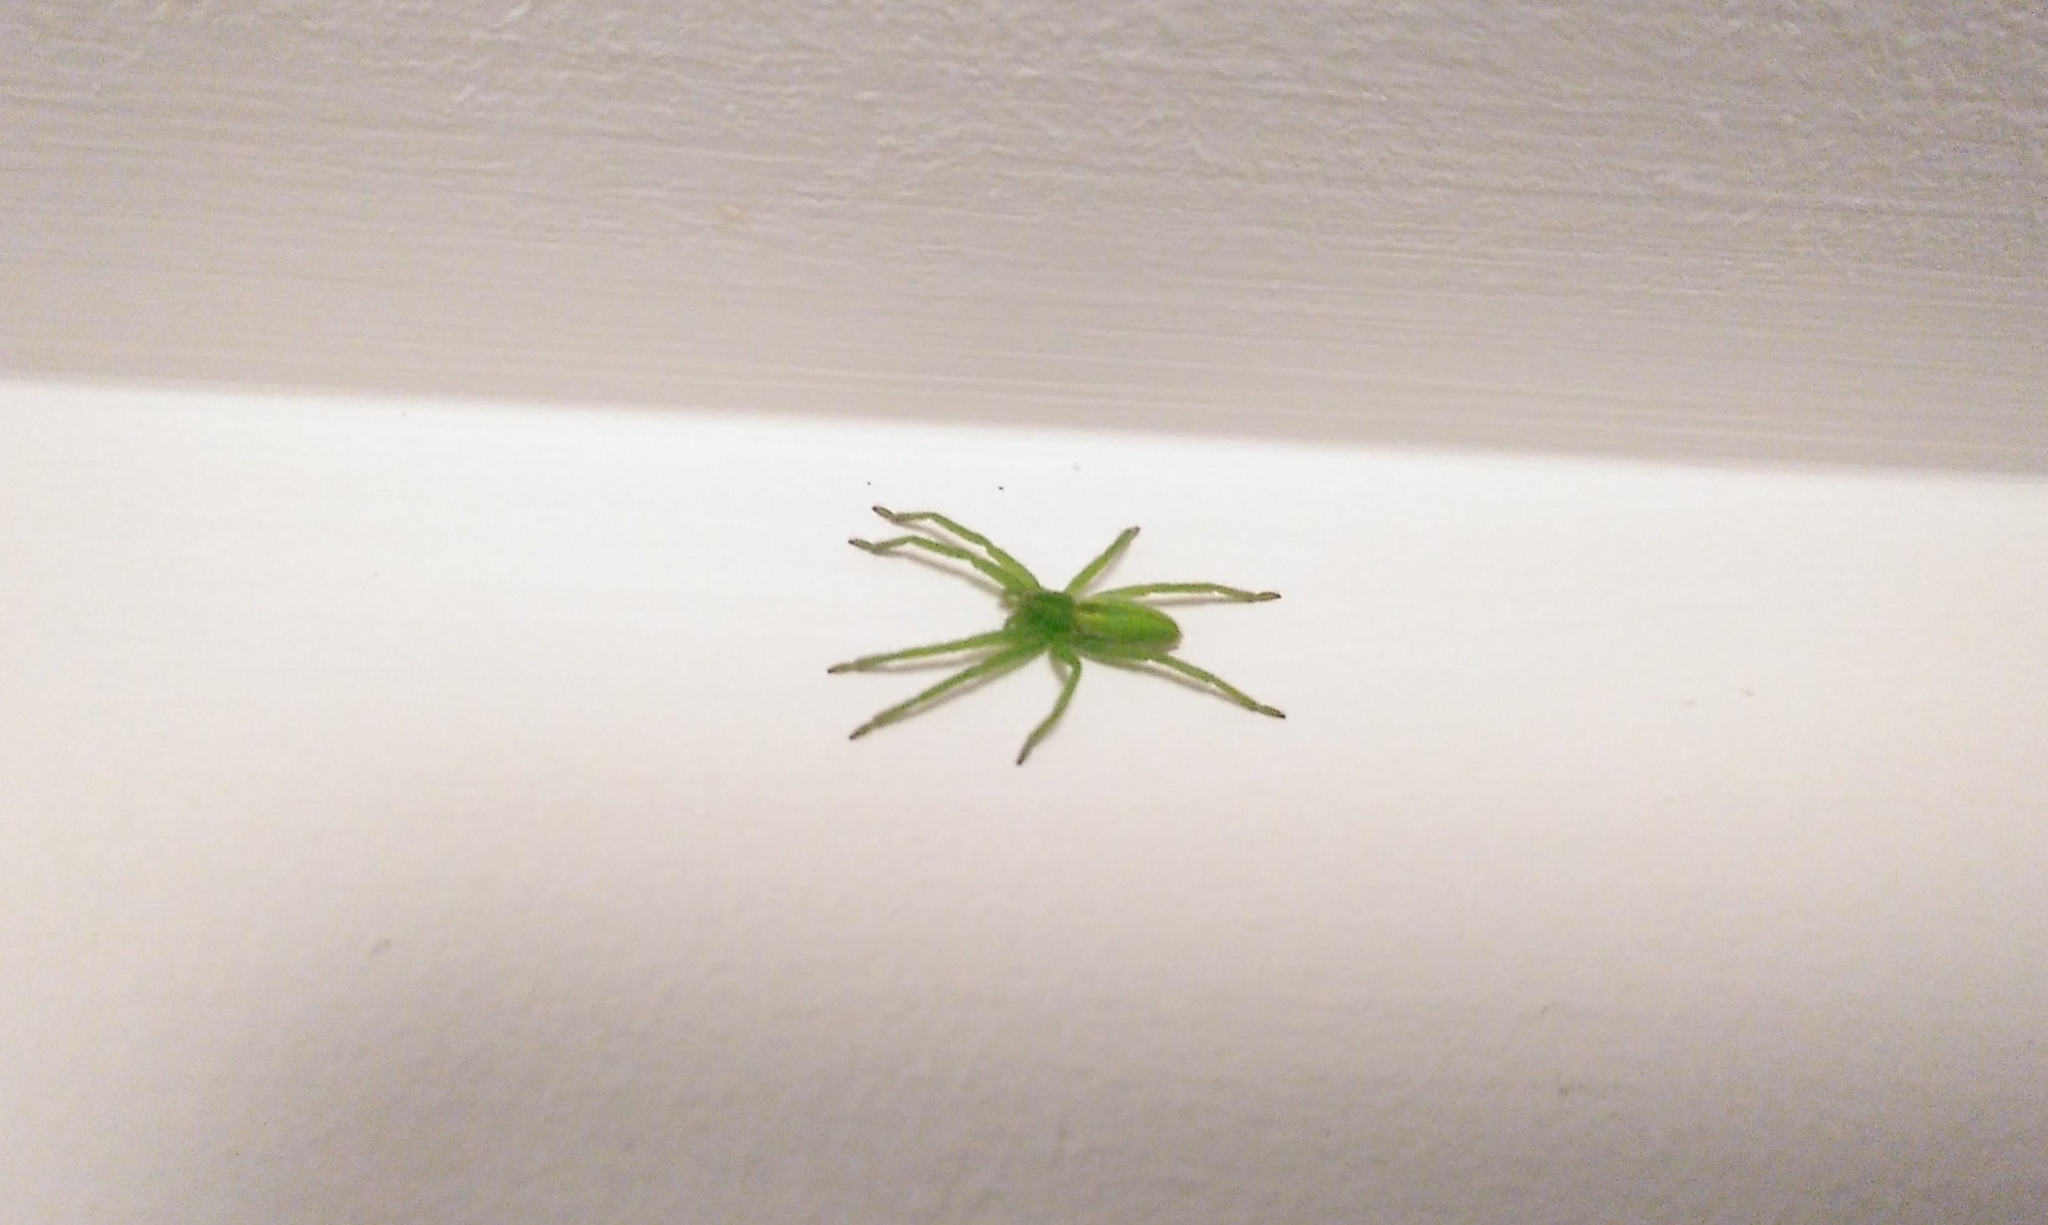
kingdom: Animalia
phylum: Arthropoda
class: Arachnida
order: Araneae
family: Sparassidae
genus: Micrommata
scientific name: Micrommata virescens
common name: Green spider
